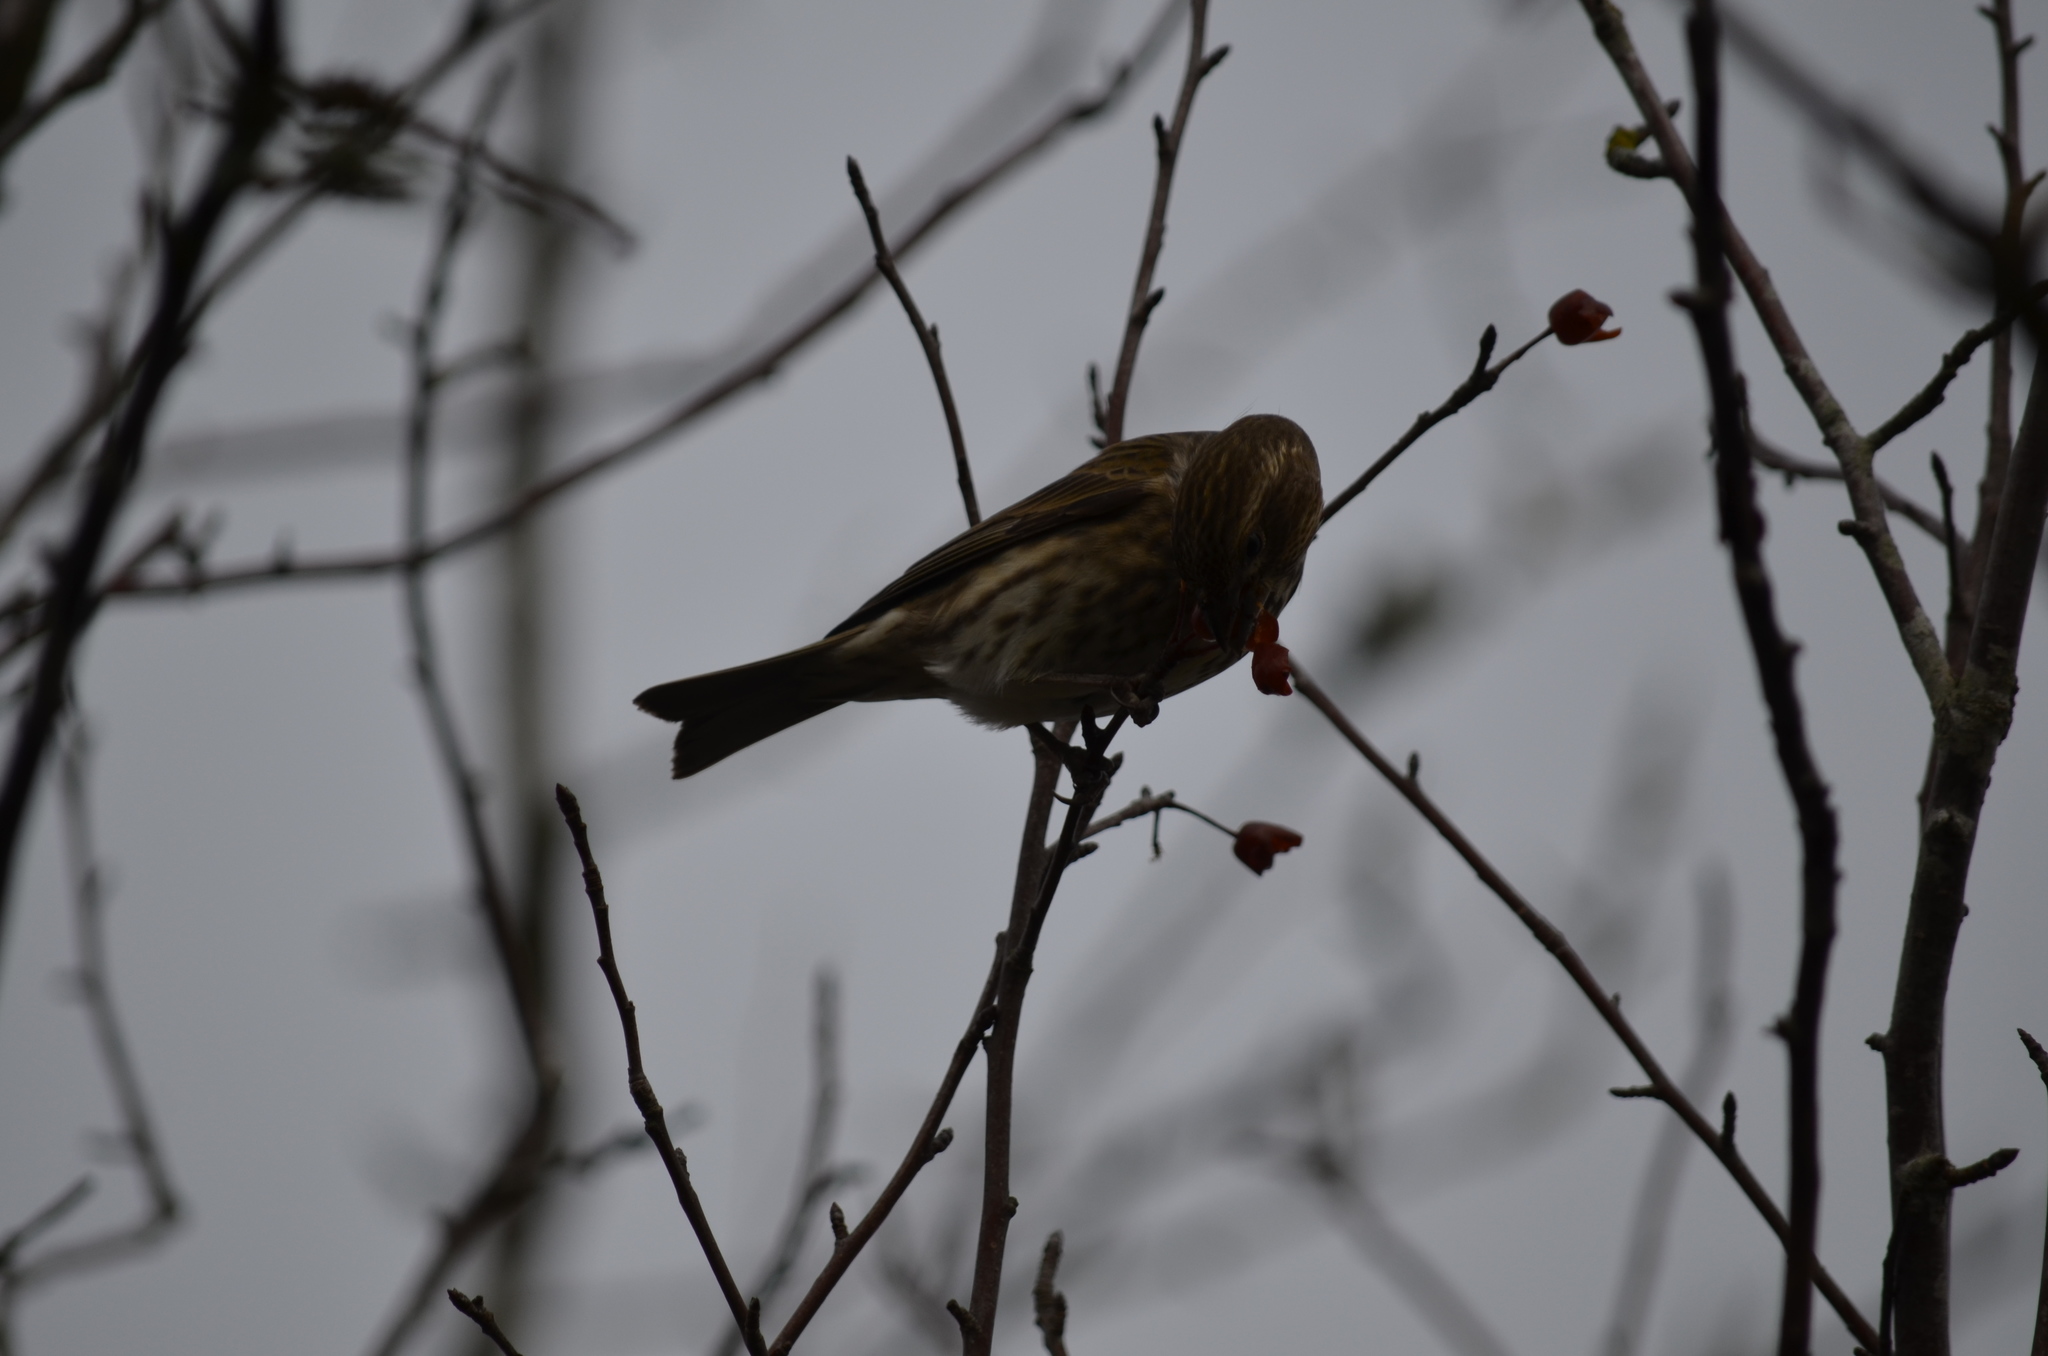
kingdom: Animalia
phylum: Chordata
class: Aves
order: Passeriformes
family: Fringillidae
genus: Haemorhous
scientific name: Haemorhous purpureus
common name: Purple finch
